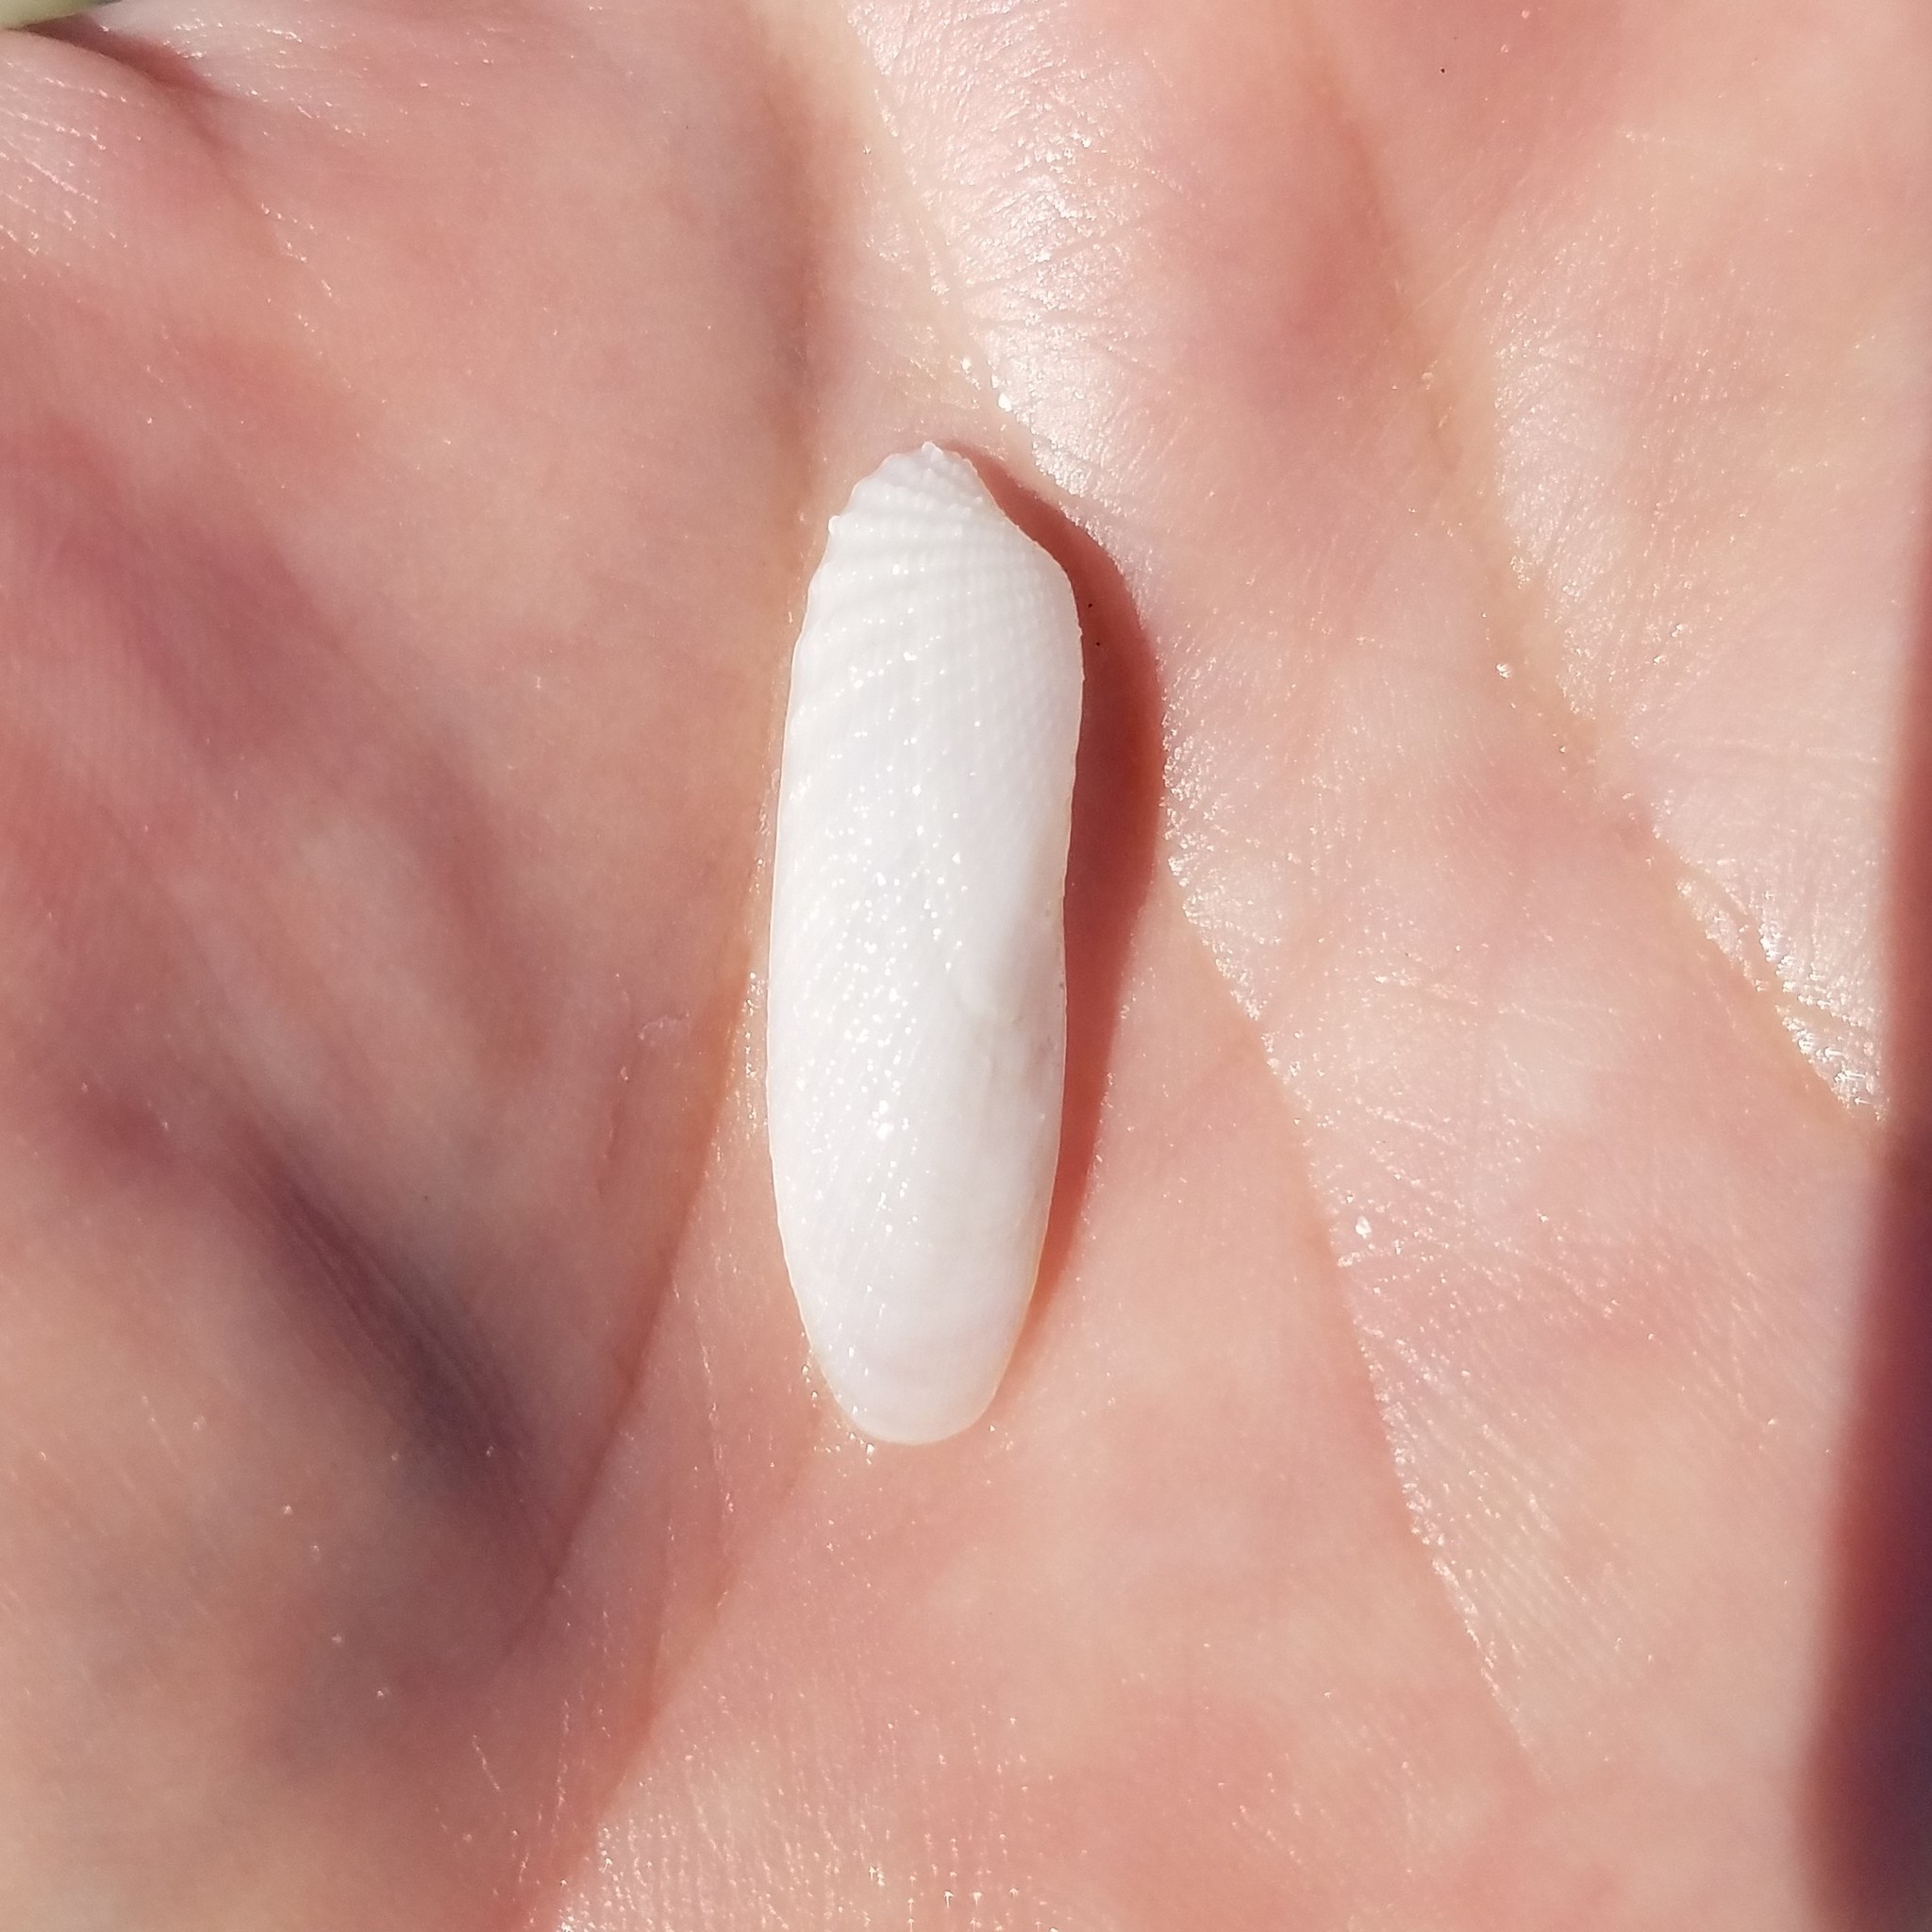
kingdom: Animalia
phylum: Mollusca
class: Bivalvia
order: Venerida
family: Veneridae
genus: Petricolaria
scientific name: Petricolaria pholadiformis
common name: American piddock
